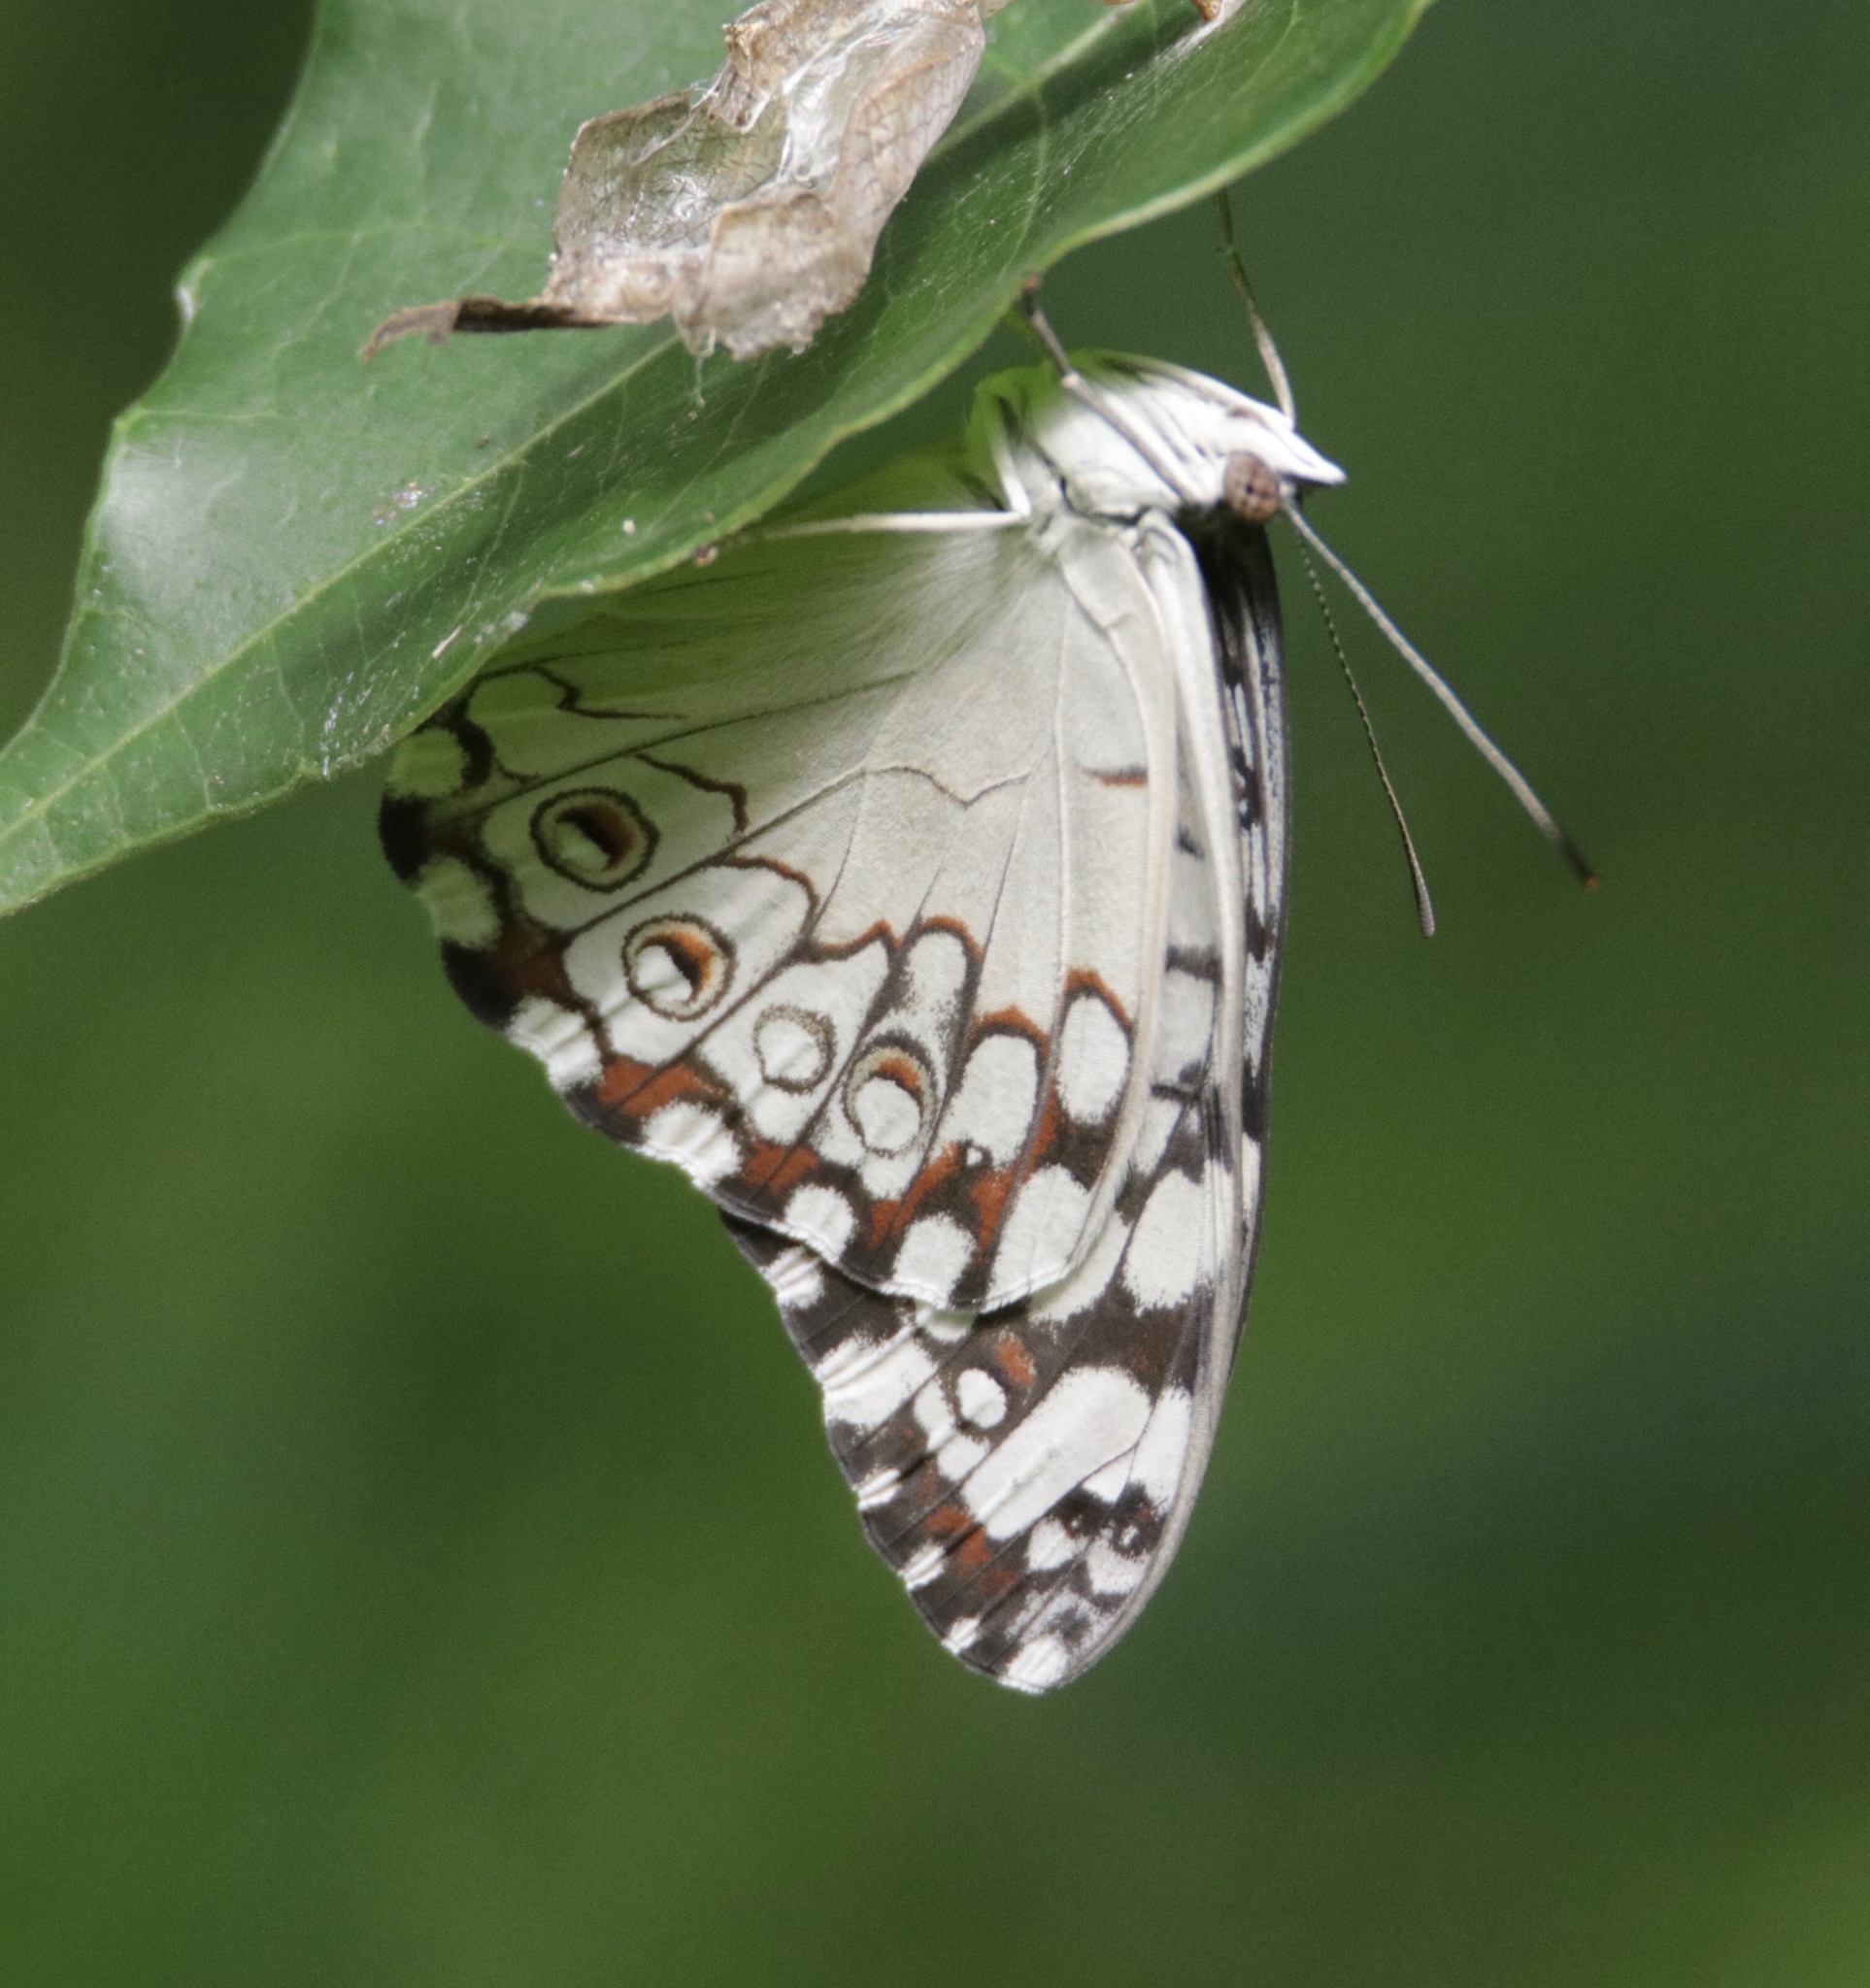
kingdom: Animalia
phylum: Arthropoda
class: Insecta
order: Lepidoptera
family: Nymphalidae
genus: Hamadryas
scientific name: Hamadryas februa
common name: Gray cracker
